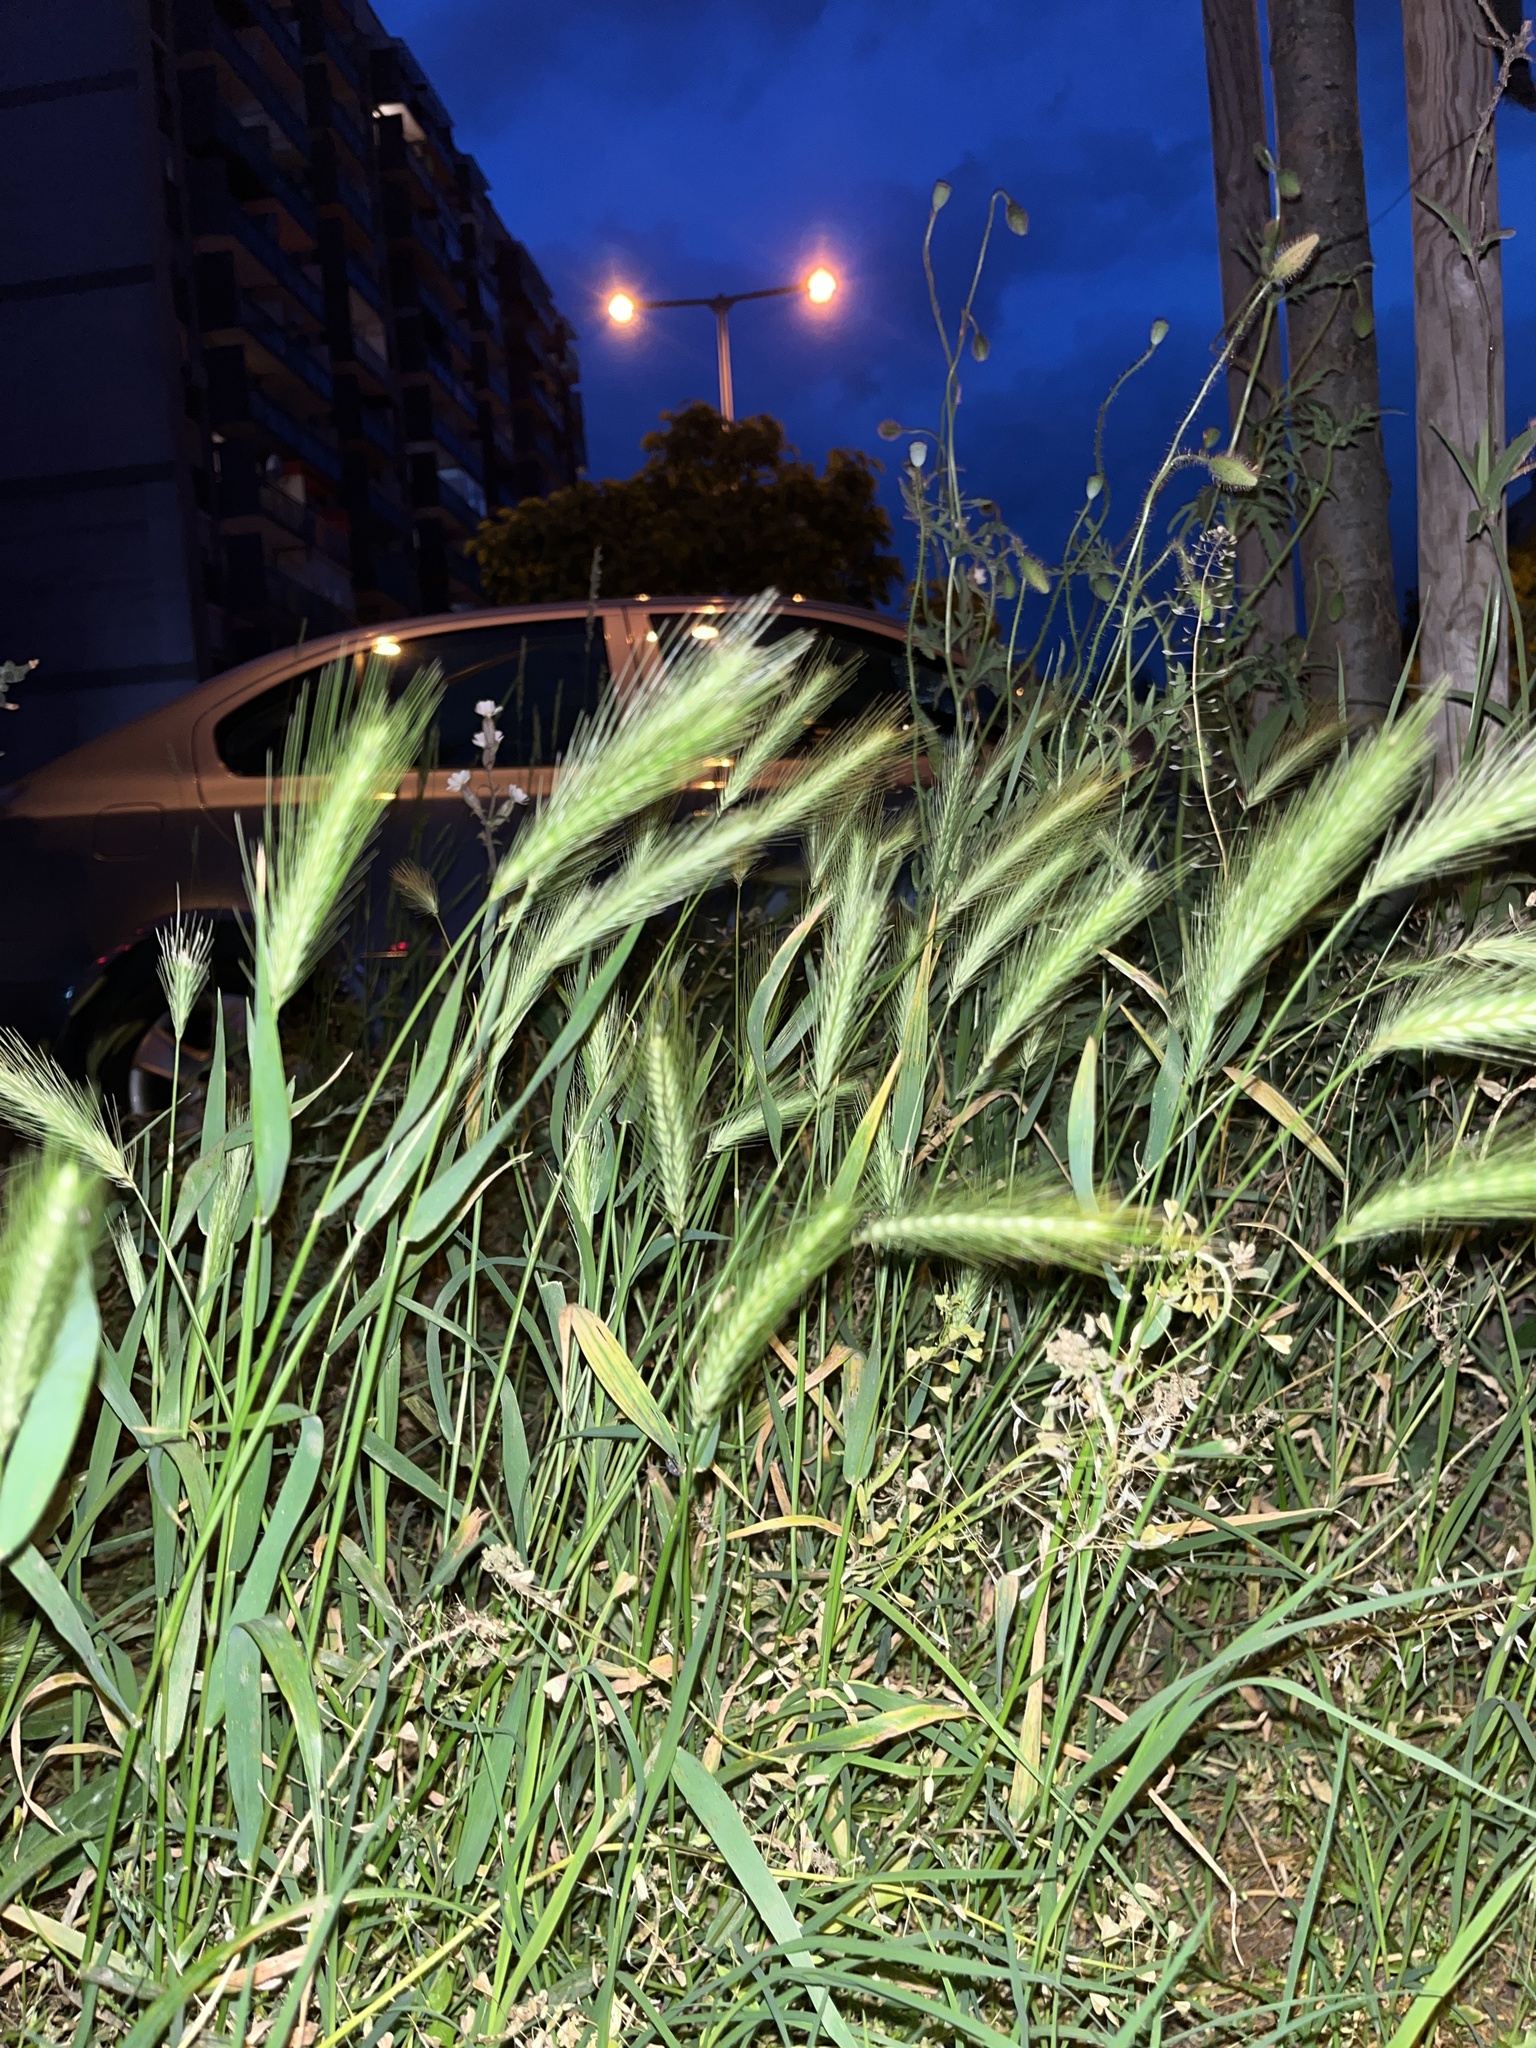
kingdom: Plantae
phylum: Tracheophyta
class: Liliopsida
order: Poales
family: Poaceae
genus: Hordeum
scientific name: Hordeum murinum
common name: Wall barley
